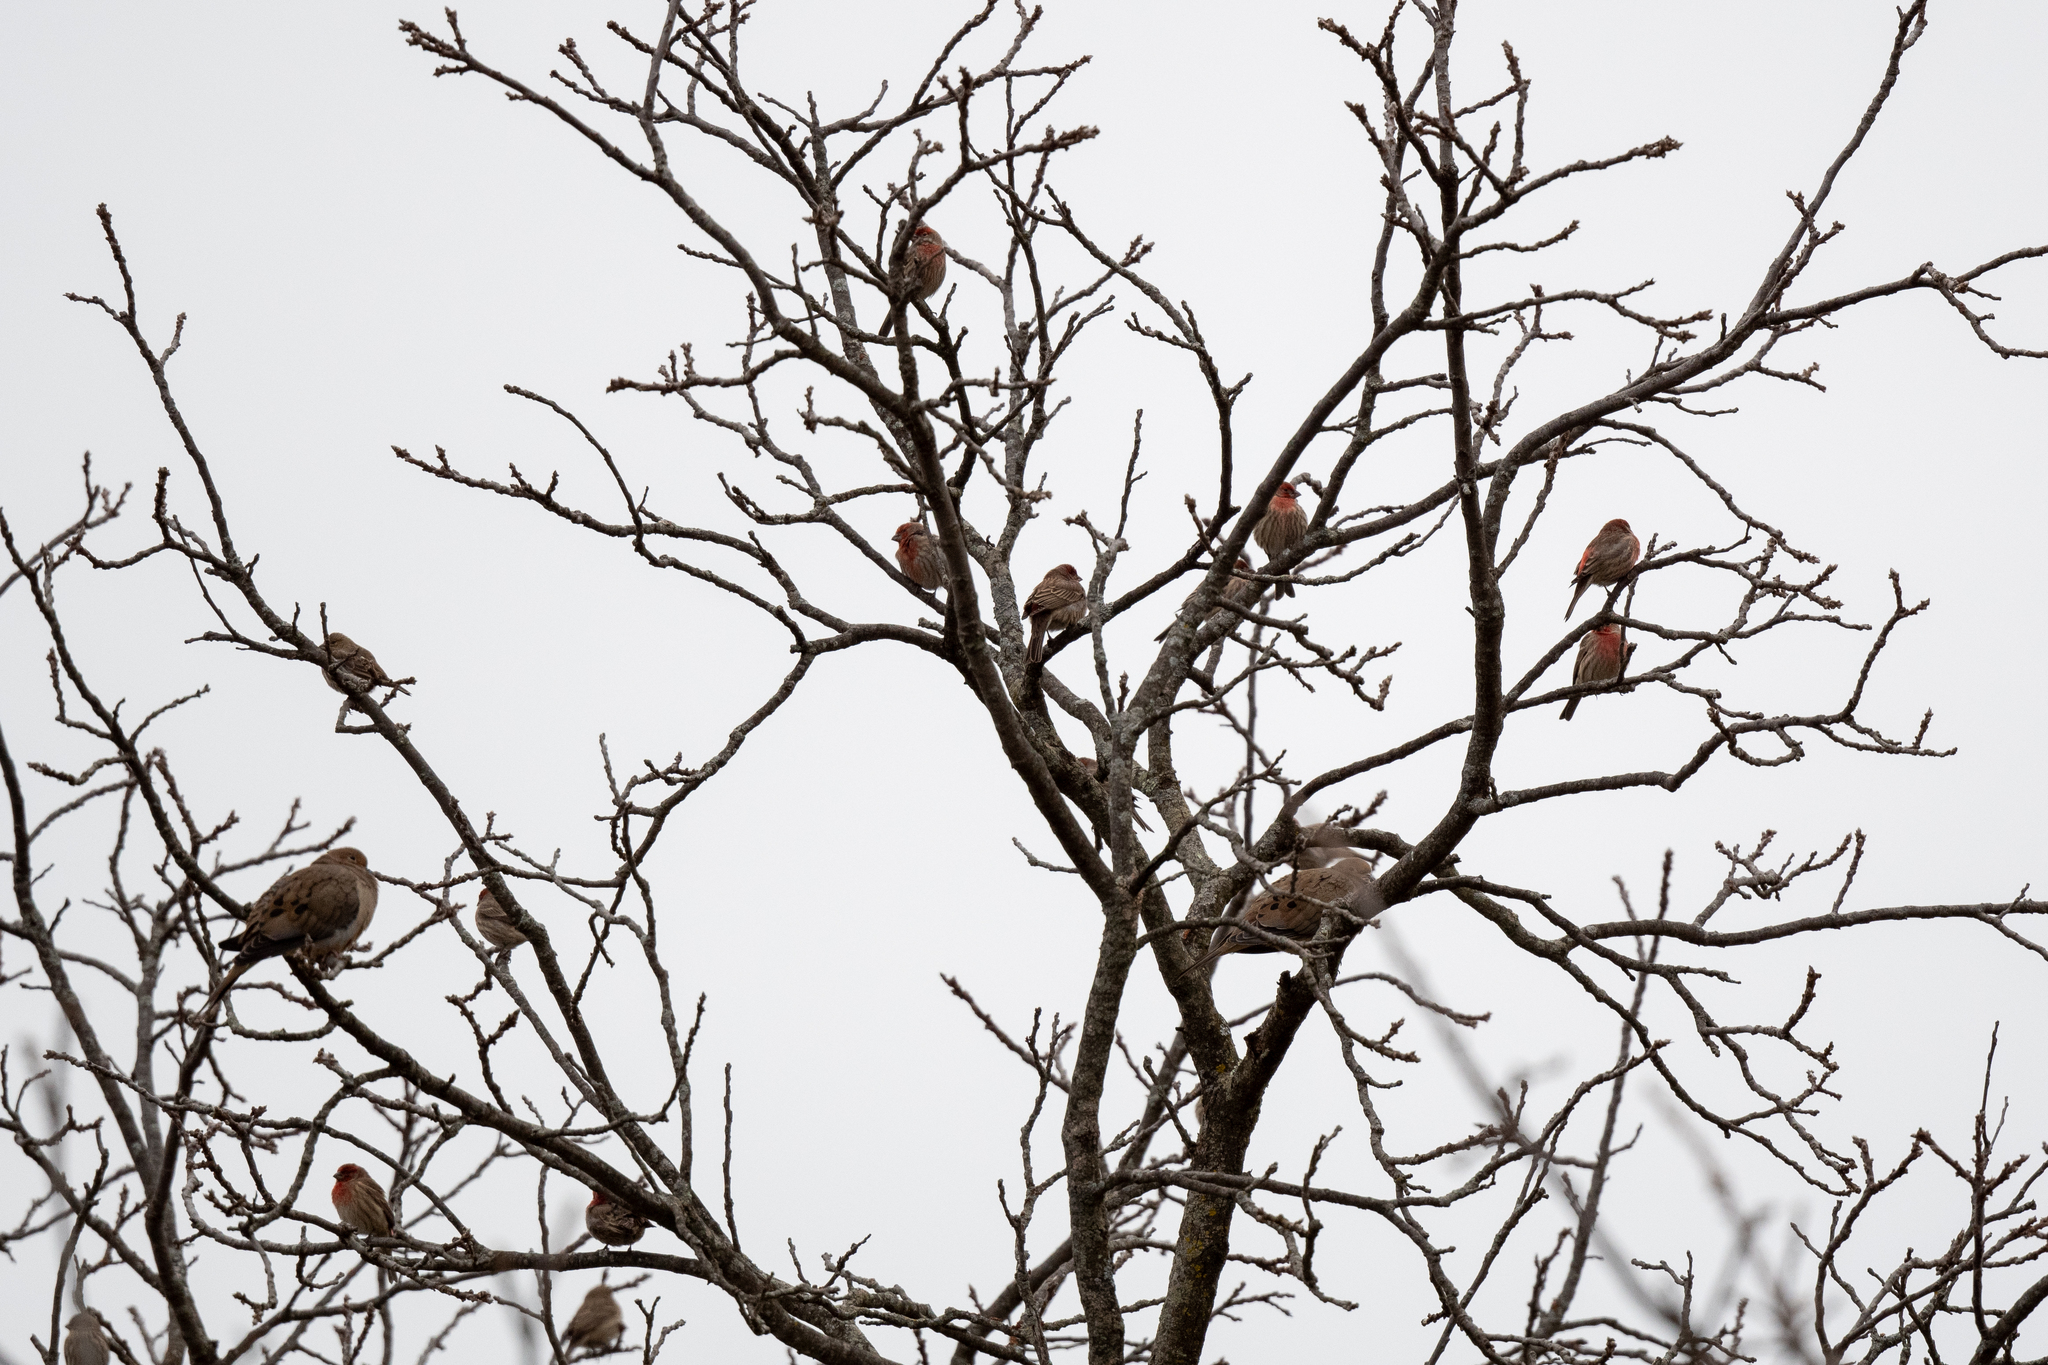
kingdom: Animalia
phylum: Chordata
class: Aves
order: Passeriformes
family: Fringillidae
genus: Haemorhous
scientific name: Haemorhous mexicanus
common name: House finch
